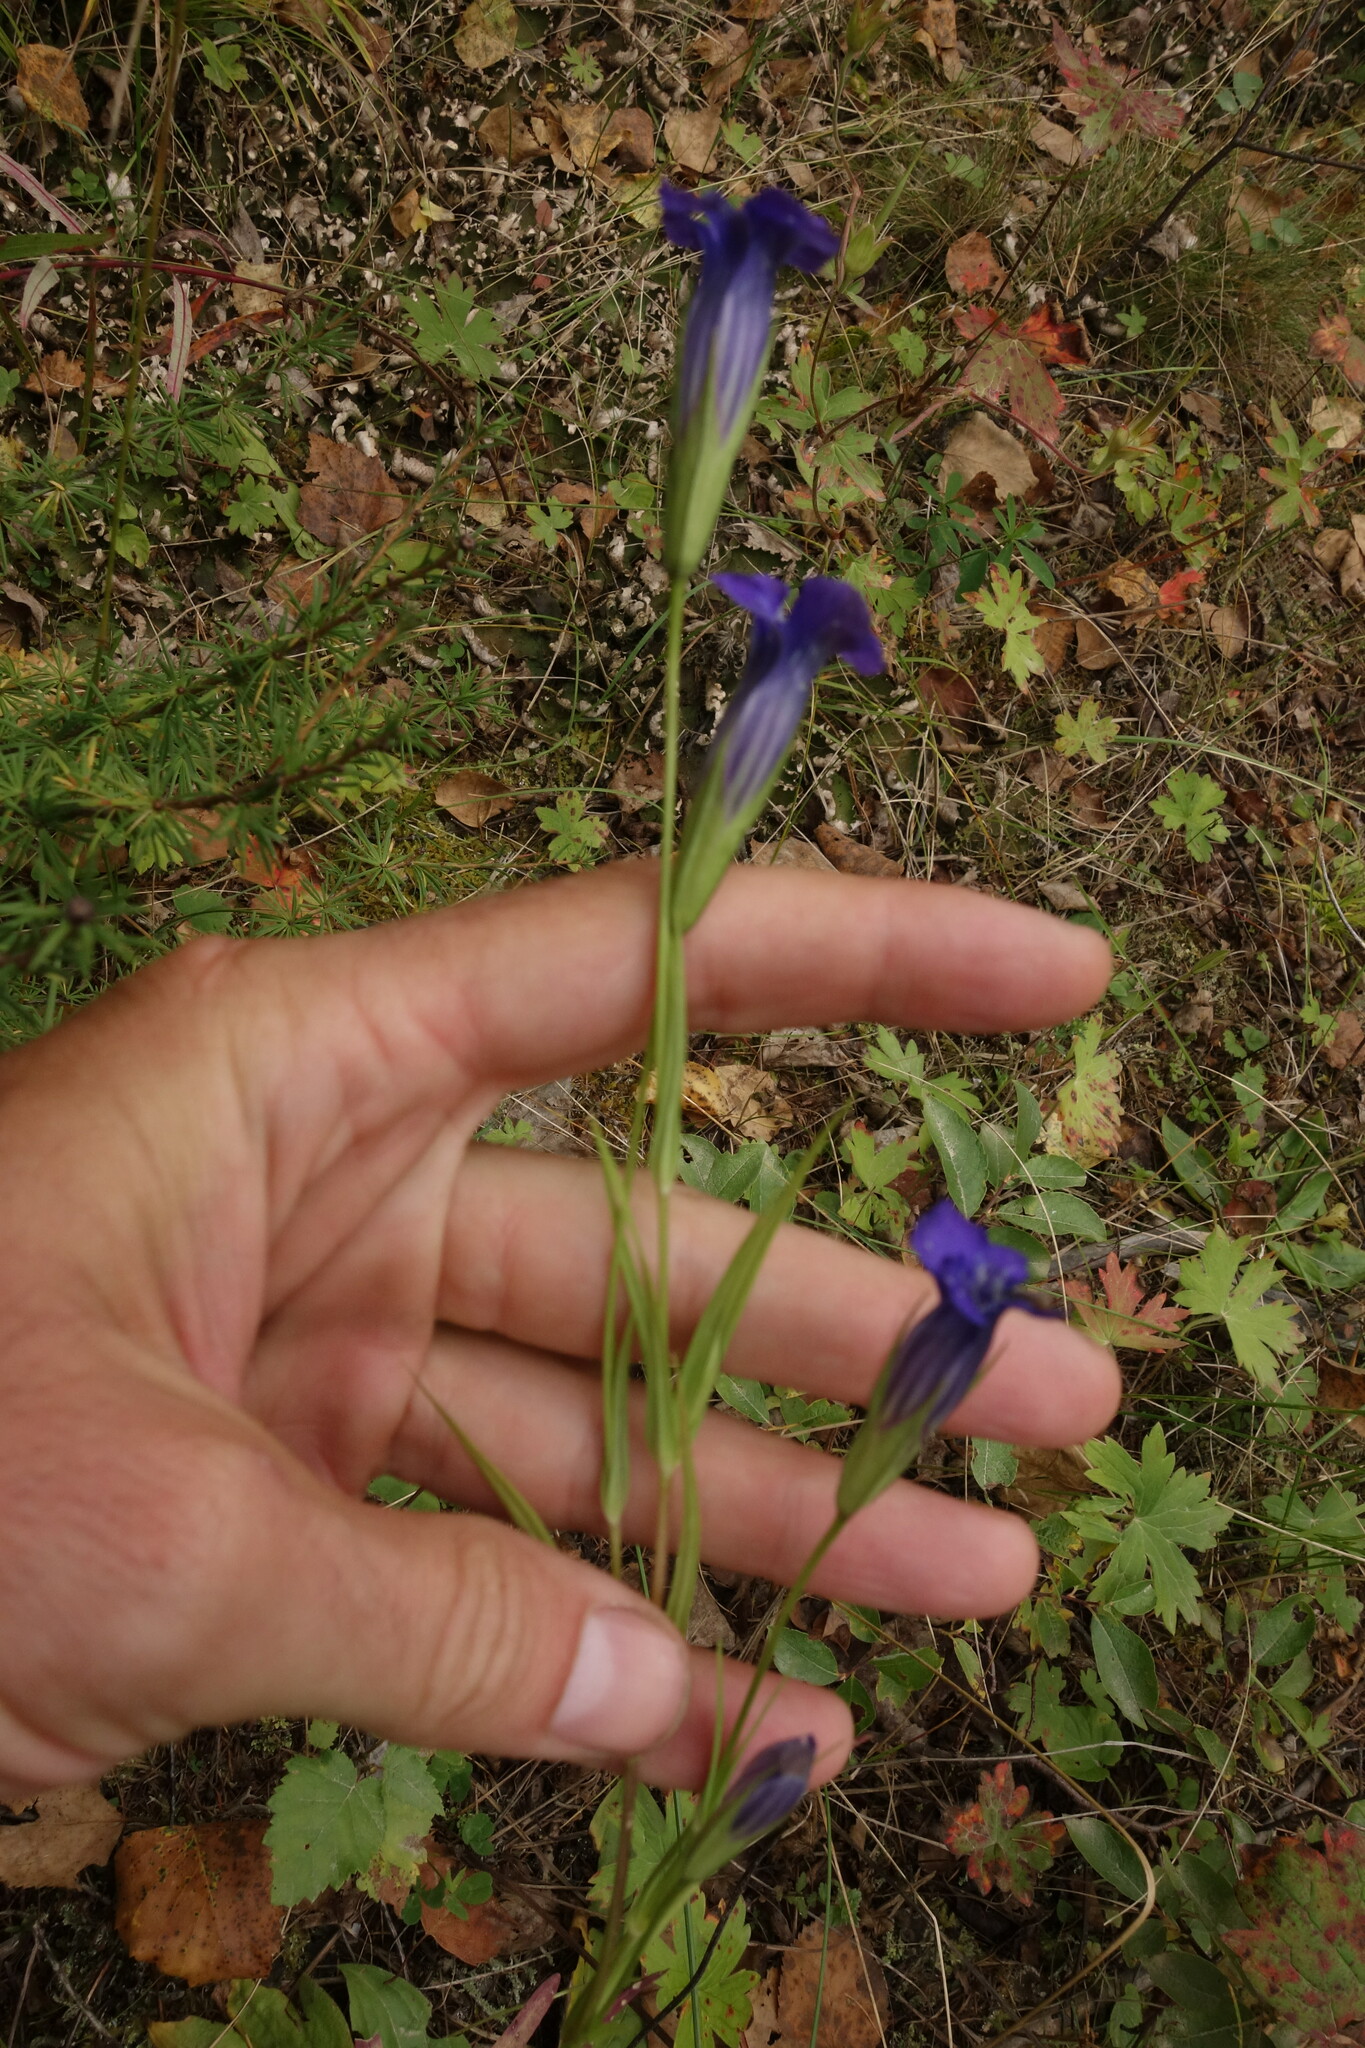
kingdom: Plantae
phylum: Tracheophyta
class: Magnoliopsida
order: Gentianales
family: Gentianaceae
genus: Gentianopsis
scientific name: Gentianopsis barbata
